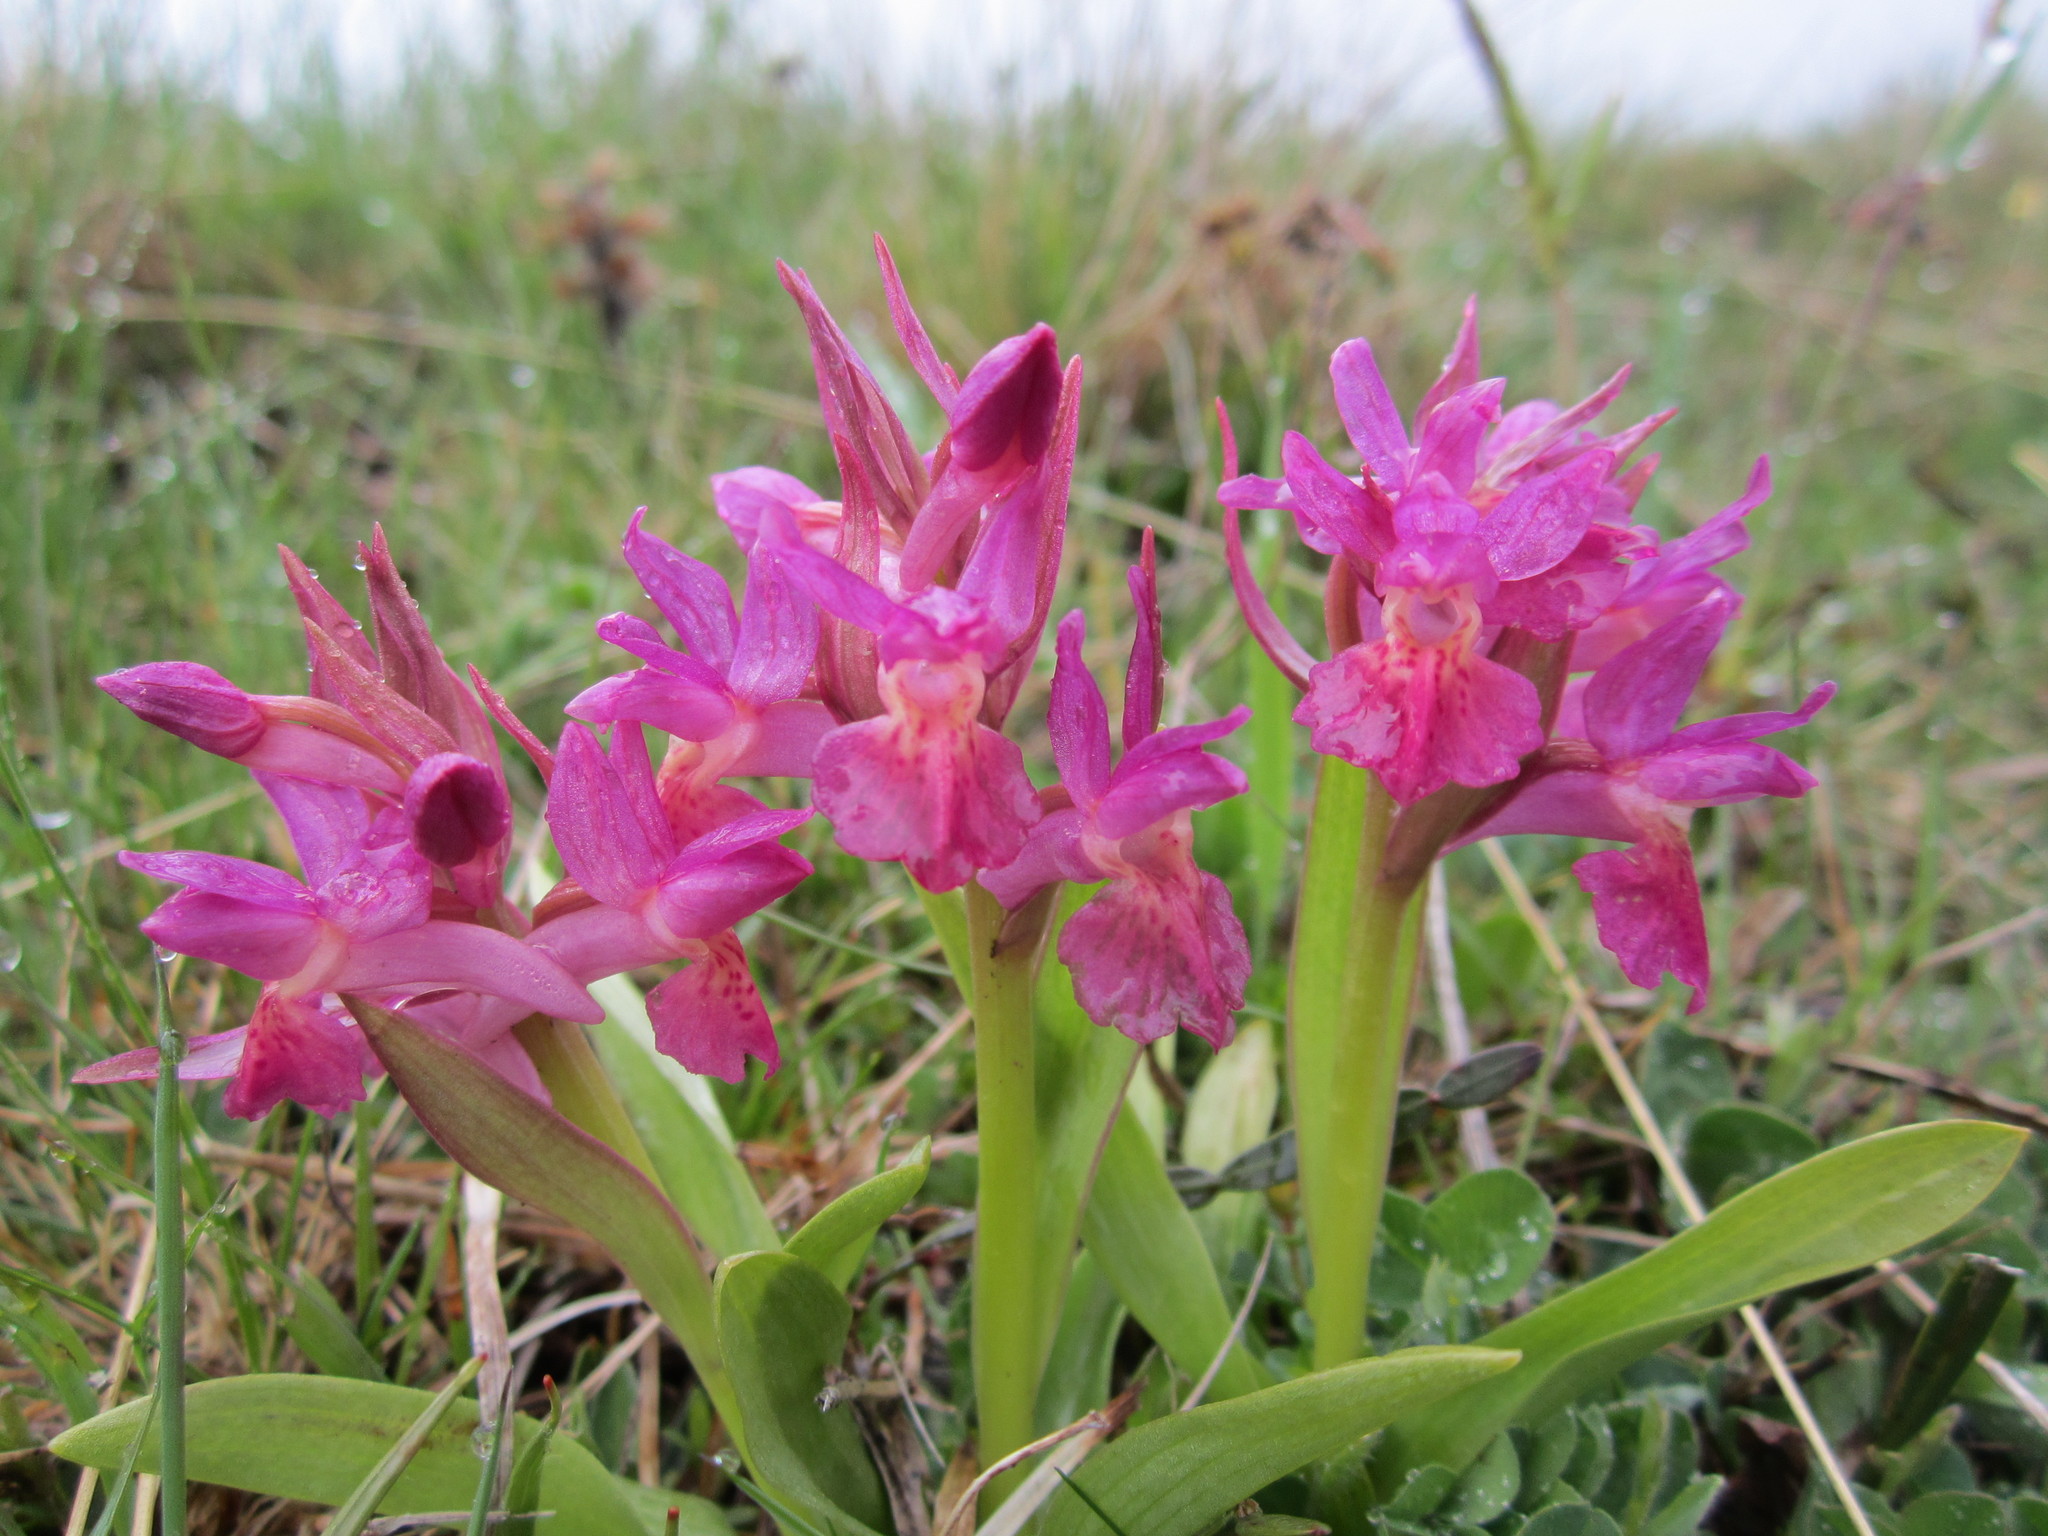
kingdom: Plantae
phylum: Tracheophyta
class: Liliopsida
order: Asparagales
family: Orchidaceae
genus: Dactylorhiza
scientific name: Dactylorhiza sambucina
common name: Elder-flowered orchid
